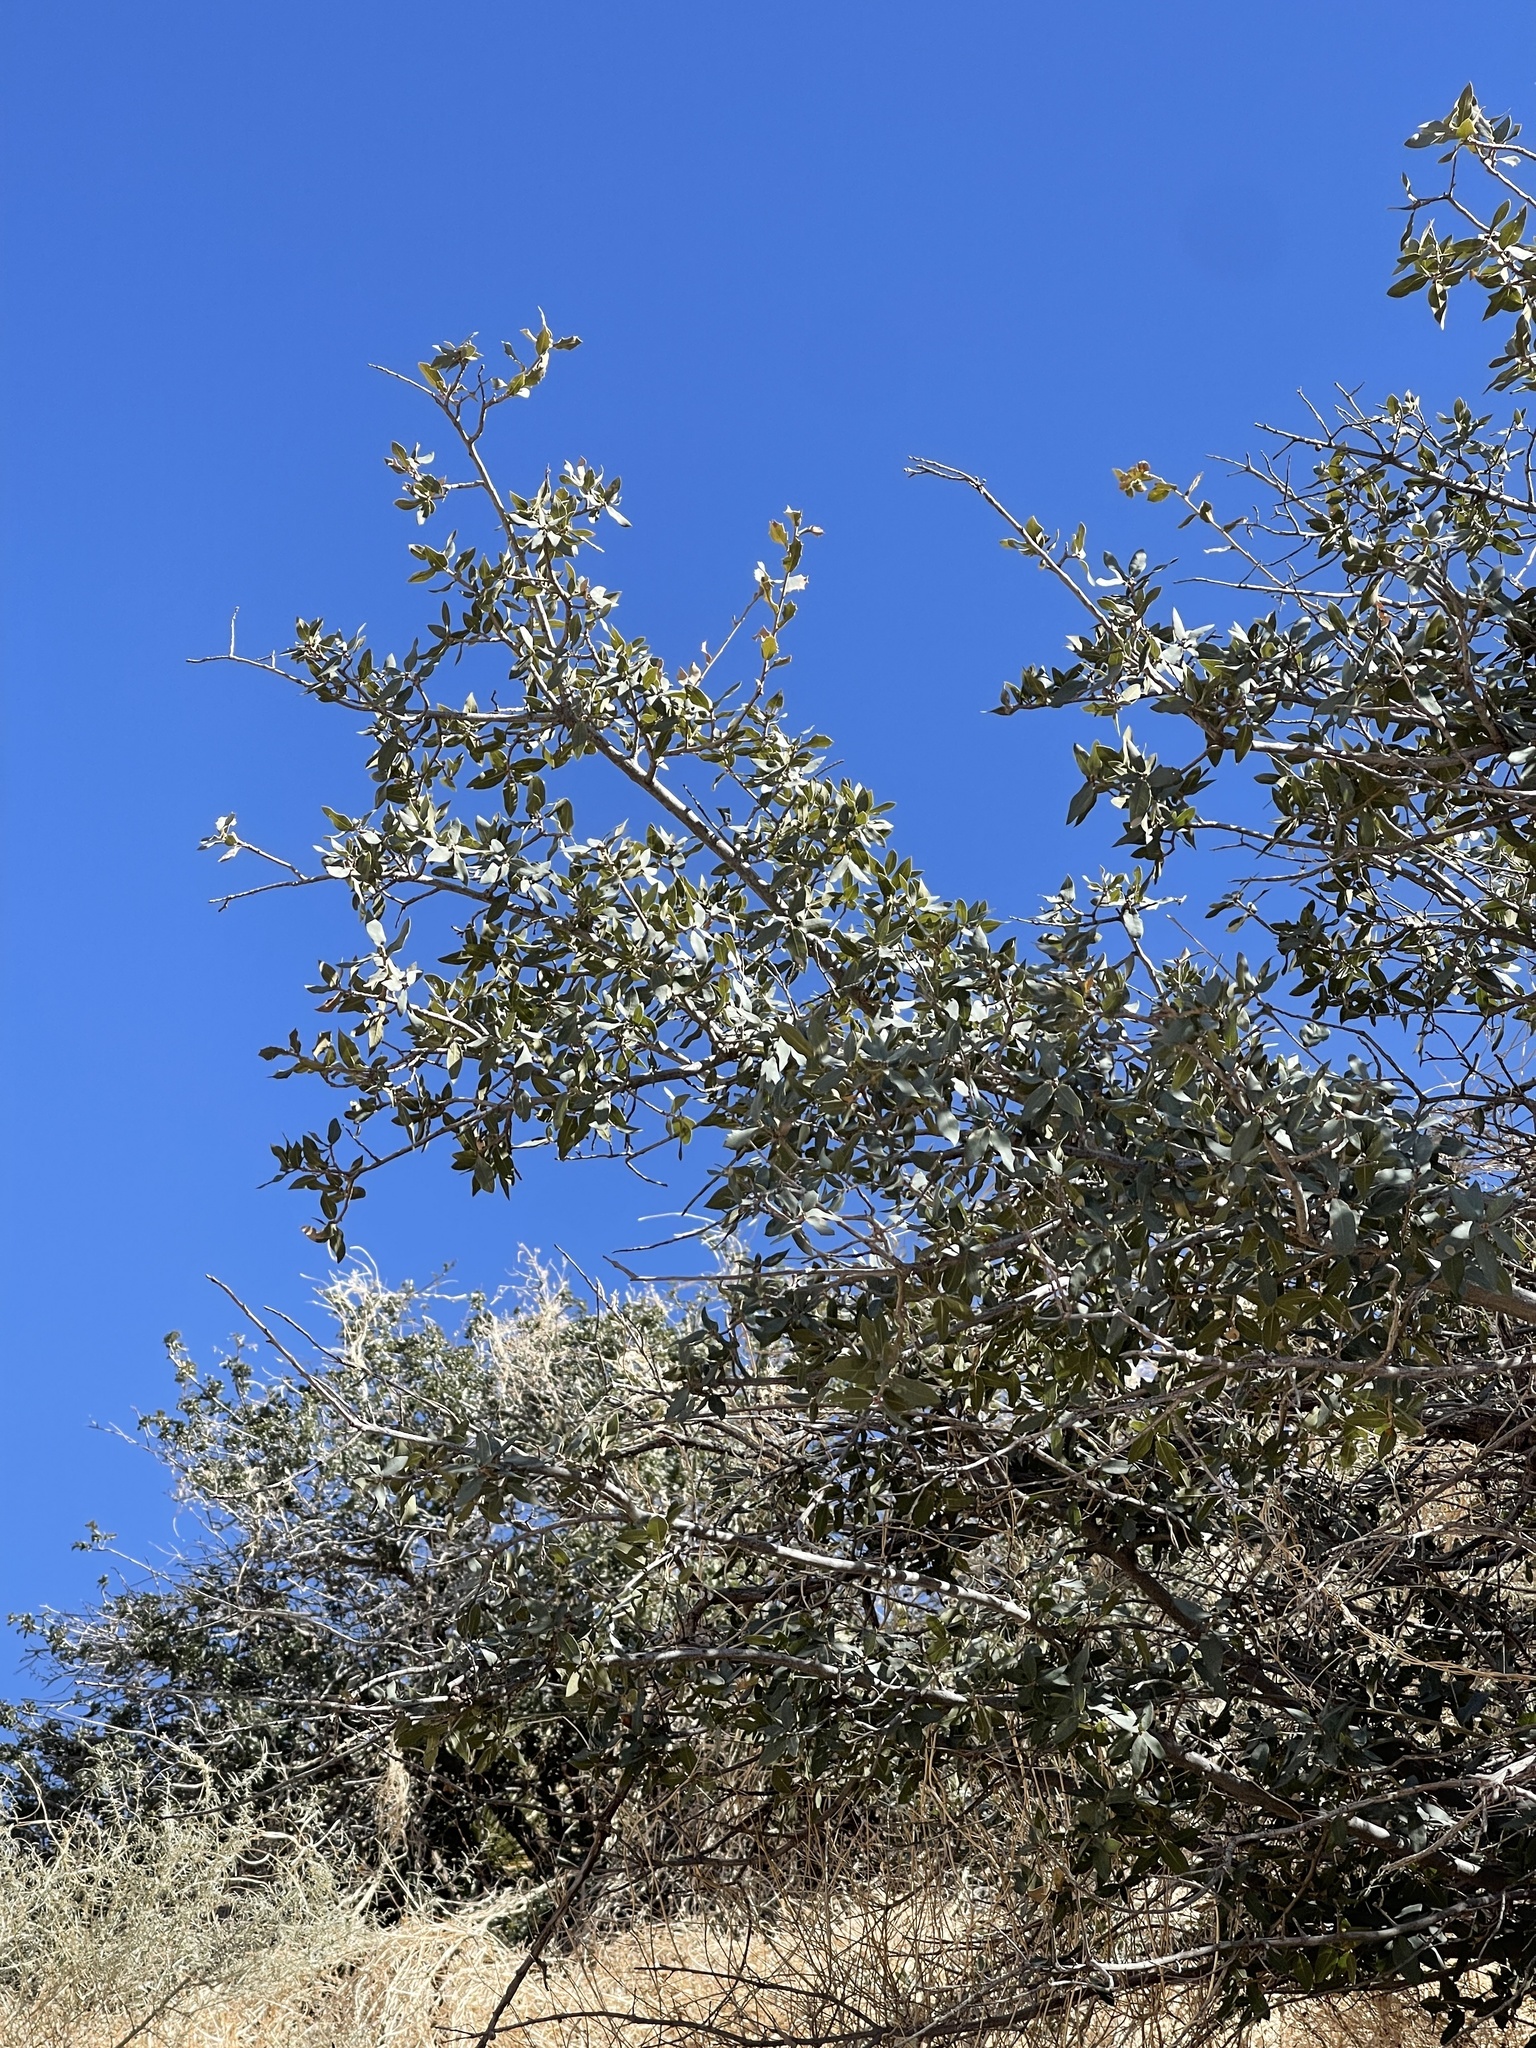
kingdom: Plantae
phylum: Tracheophyta
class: Magnoliopsida
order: Fagales
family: Fagaceae
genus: Quercus
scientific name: Quercus grisea
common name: Gray oak
